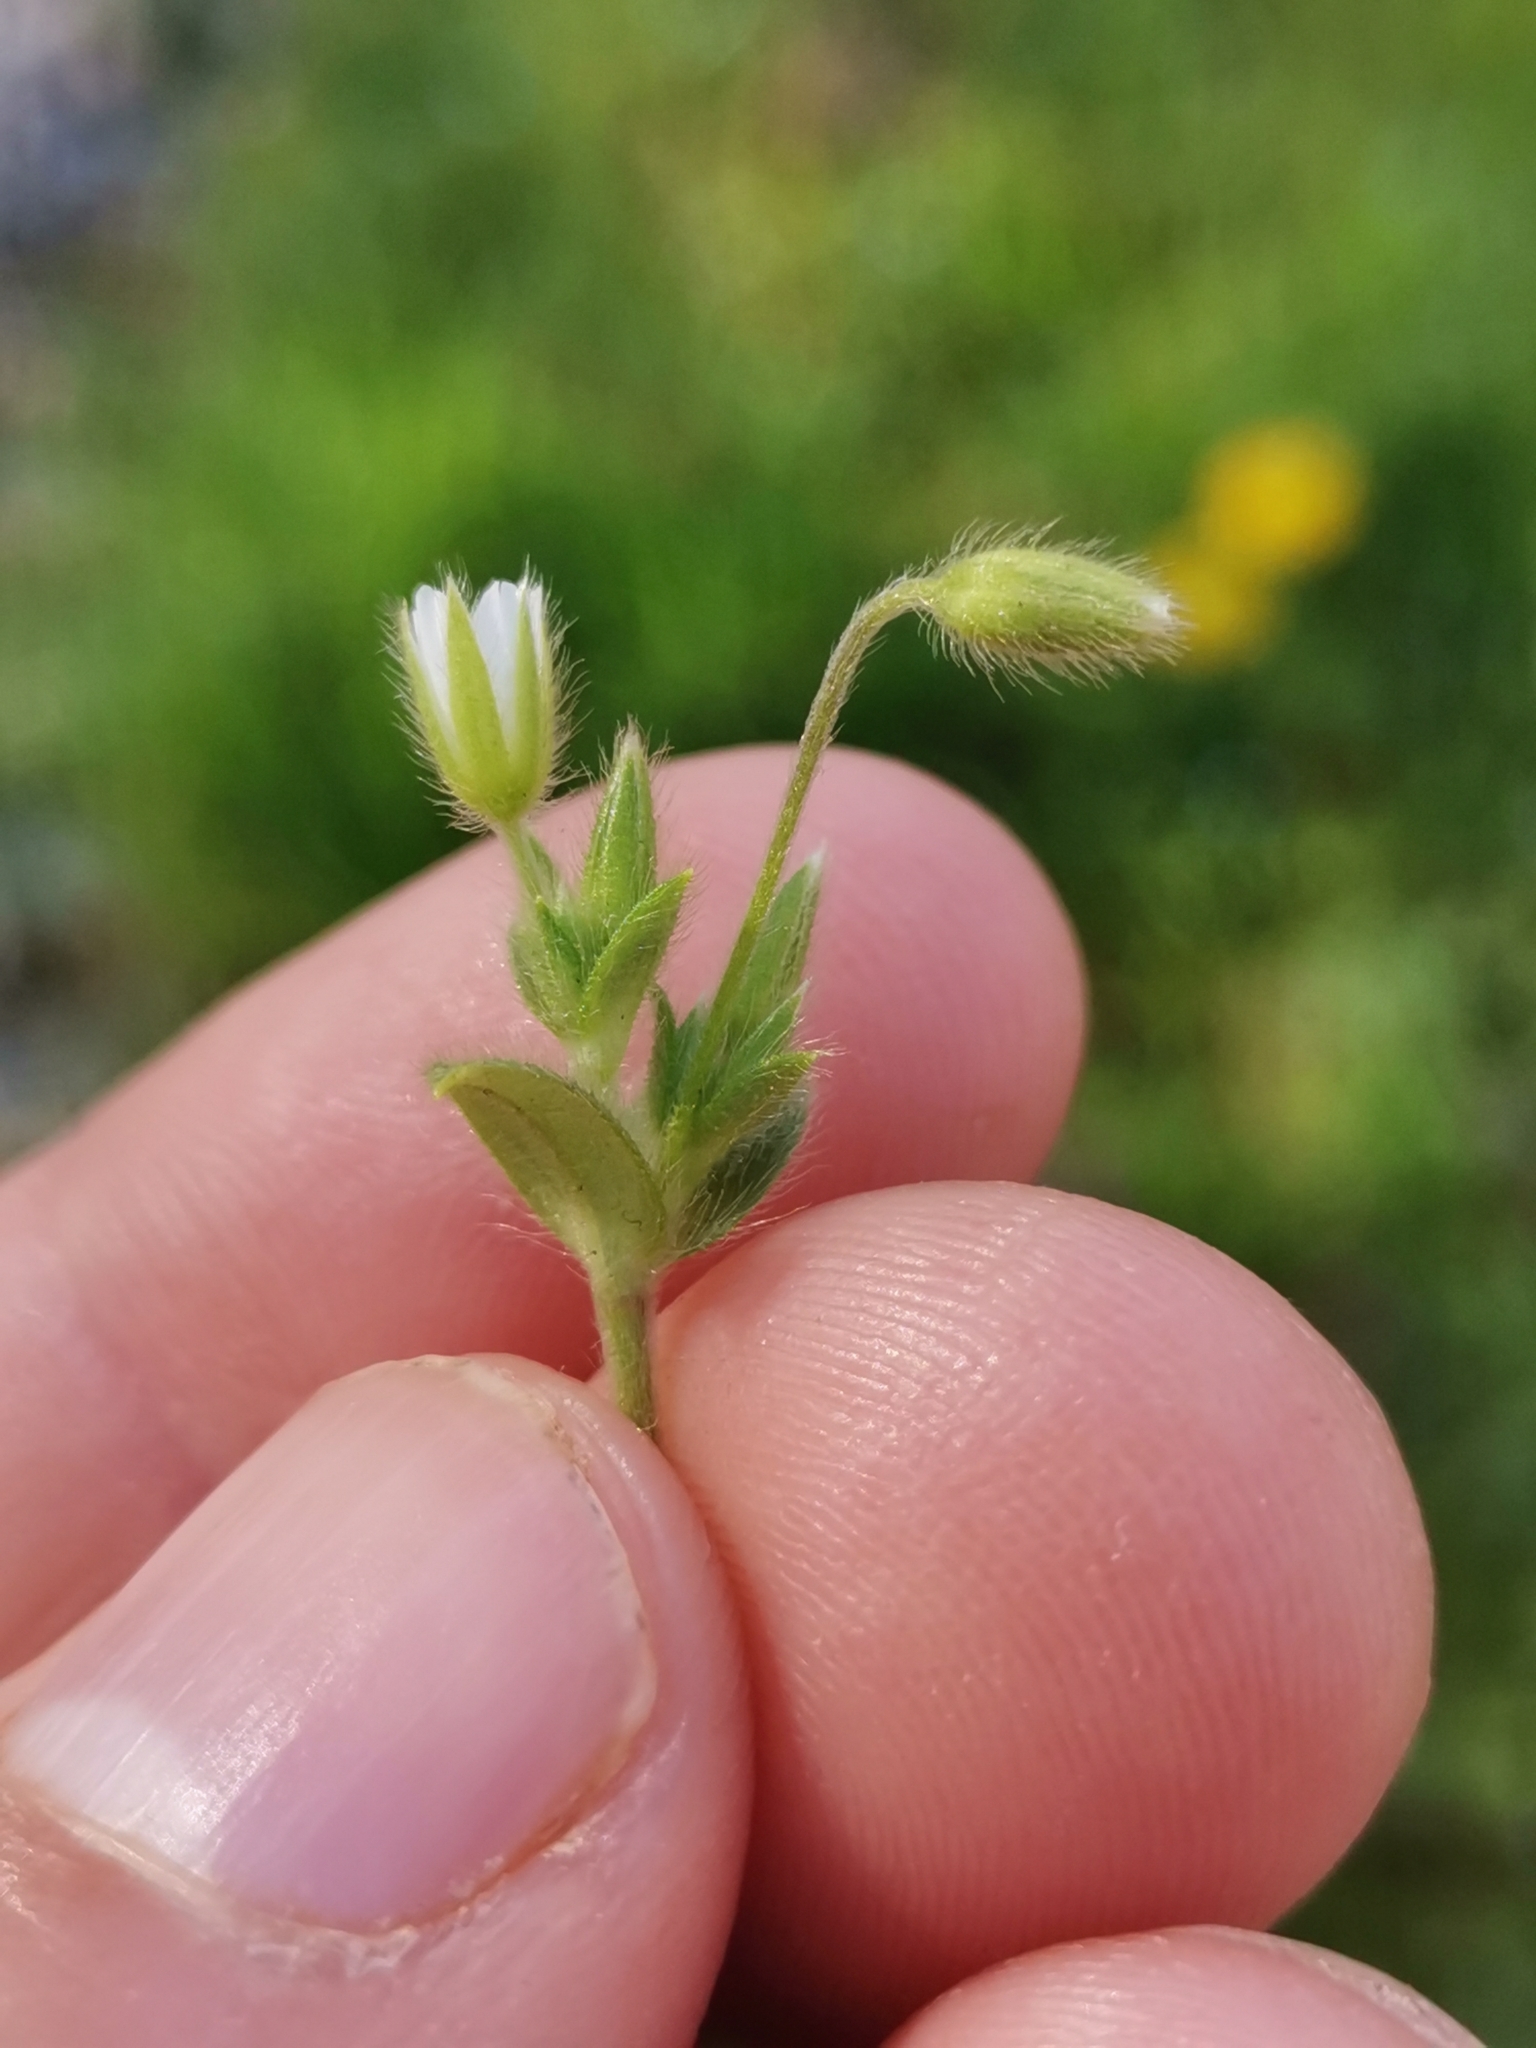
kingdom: Plantae
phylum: Tracheophyta
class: Magnoliopsida
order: Caryophyllales
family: Caryophyllaceae
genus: Cerastium
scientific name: Cerastium tenoreanum
